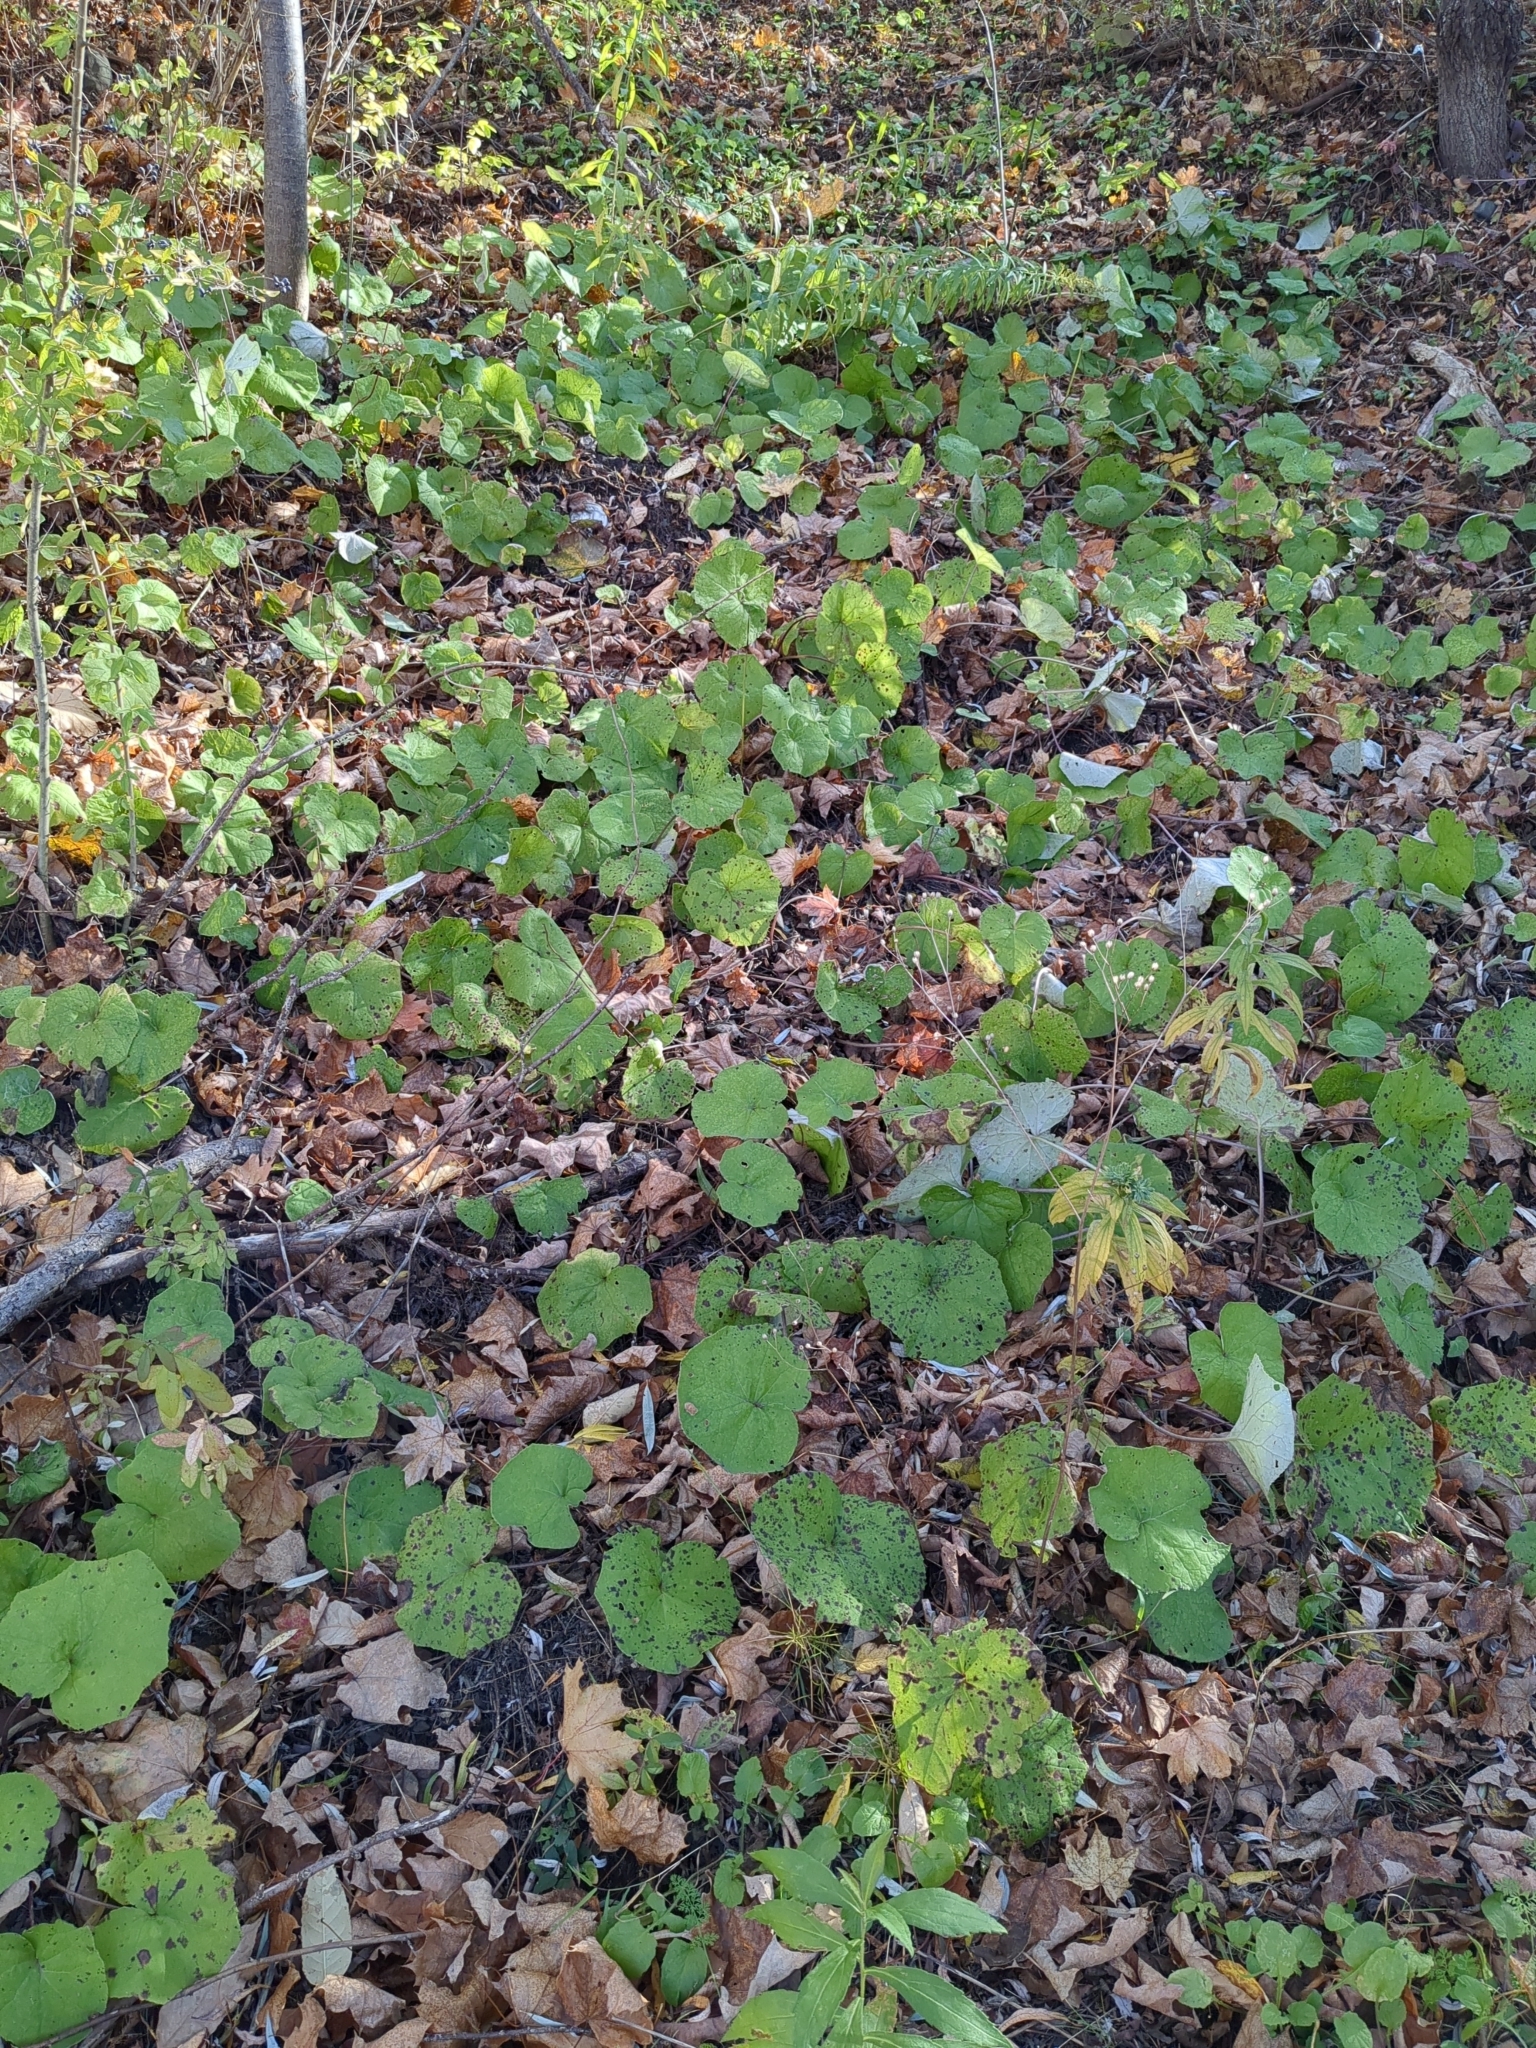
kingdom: Plantae
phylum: Tracheophyta
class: Magnoliopsida
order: Asterales
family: Asteraceae
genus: Tussilago
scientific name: Tussilago farfara
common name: Coltsfoot
